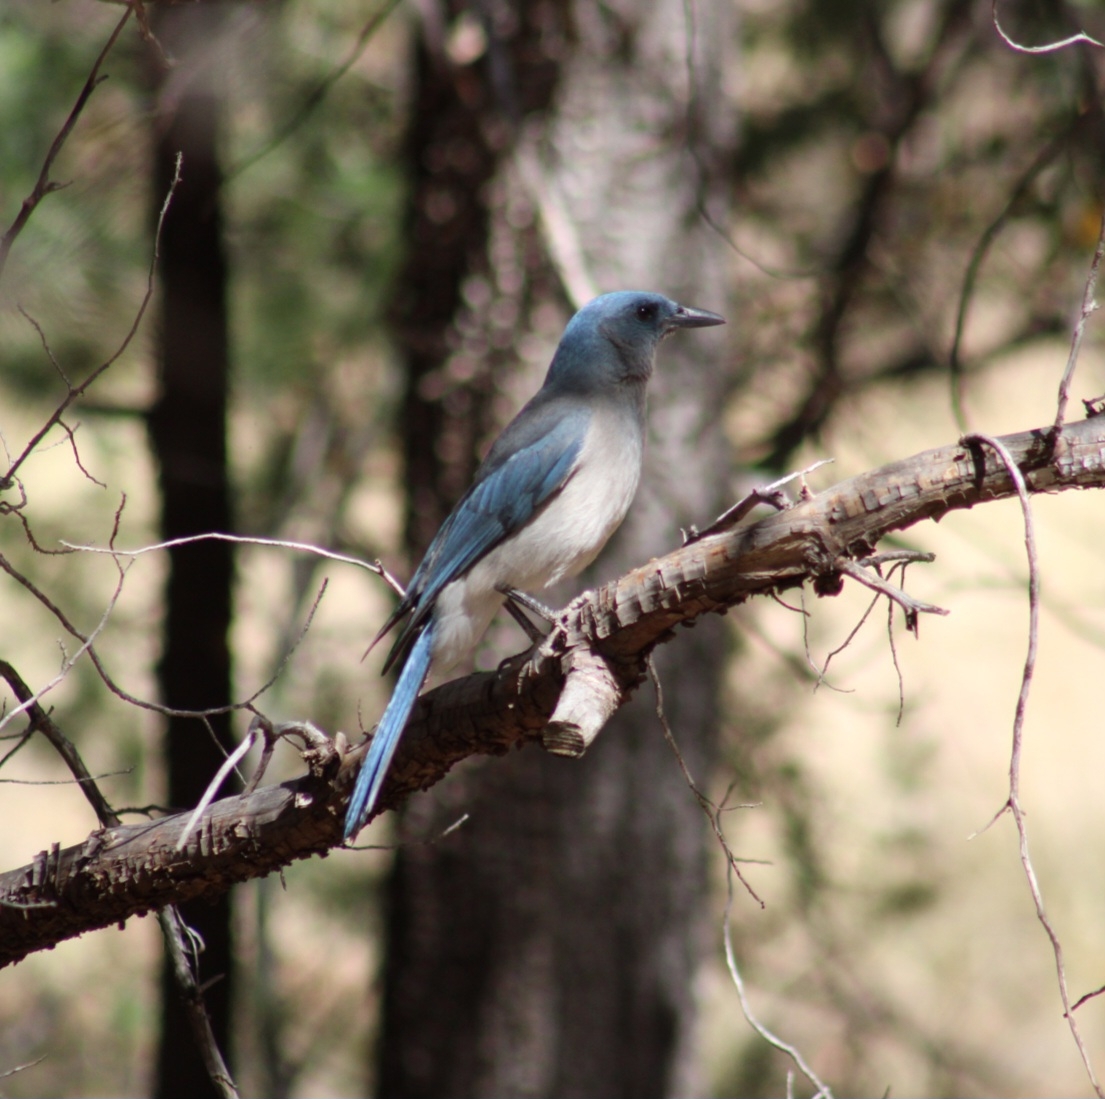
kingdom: Animalia
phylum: Chordata
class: Aves
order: Passeriformes
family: Corvidae
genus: Aphelocoma
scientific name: Aphelocoma wollweberi
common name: Mexican jay
